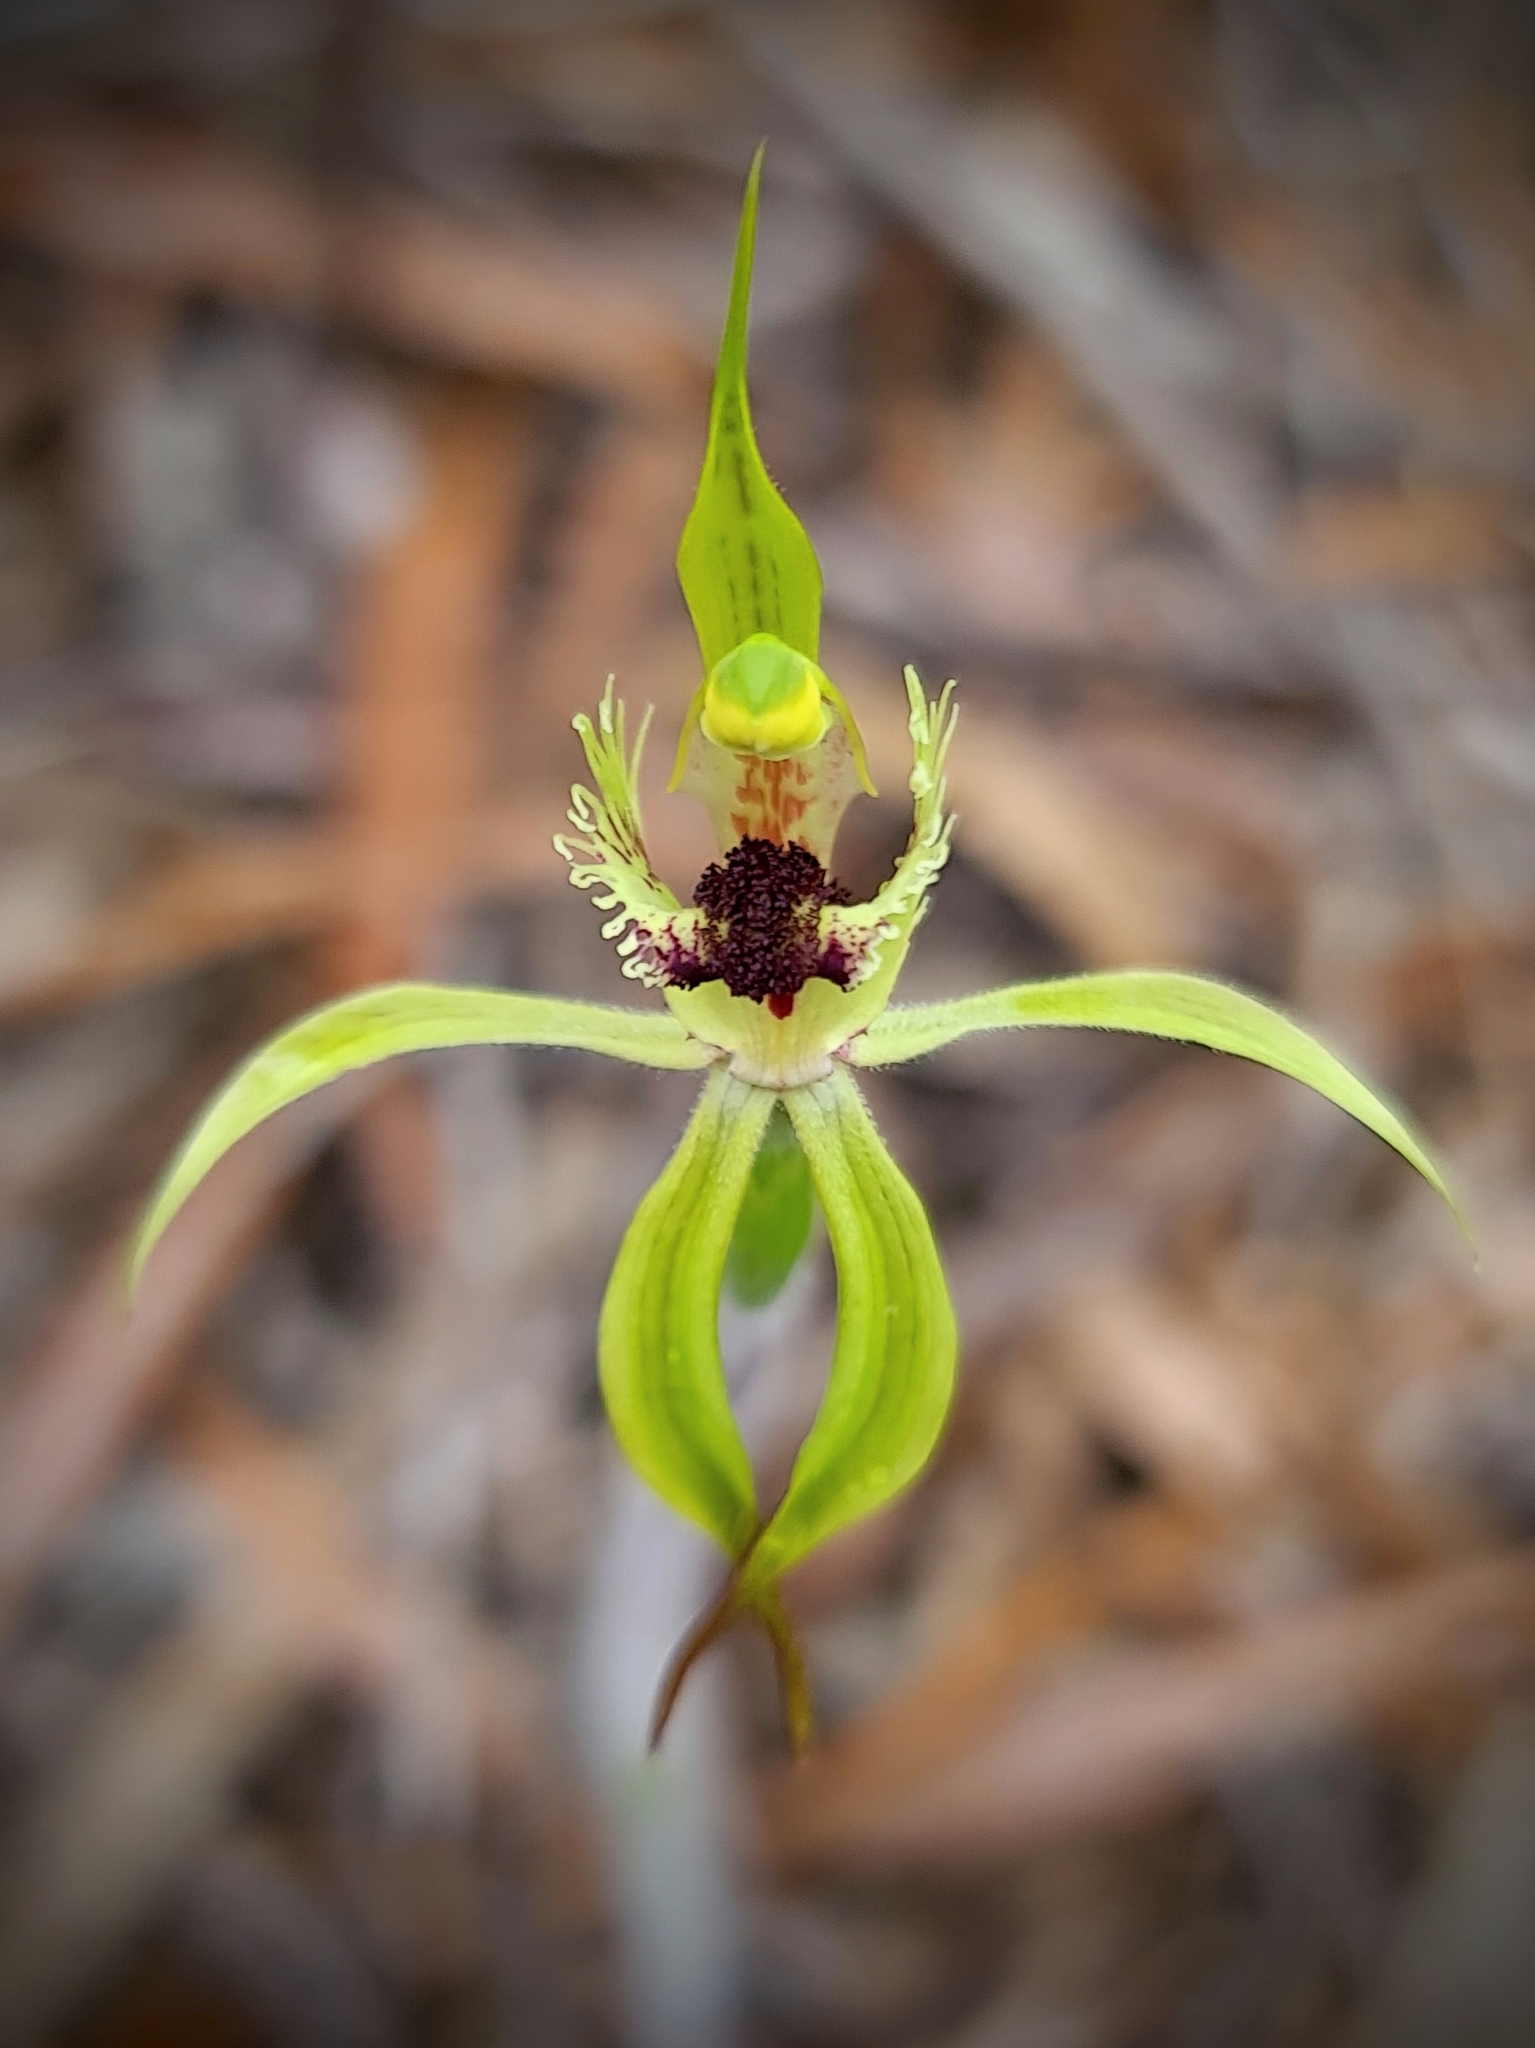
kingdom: Plantae
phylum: Tracheophyta
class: Liliopsida
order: Asparagales
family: Orchidaceae
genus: Caladenia
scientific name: Caladenia crebra
